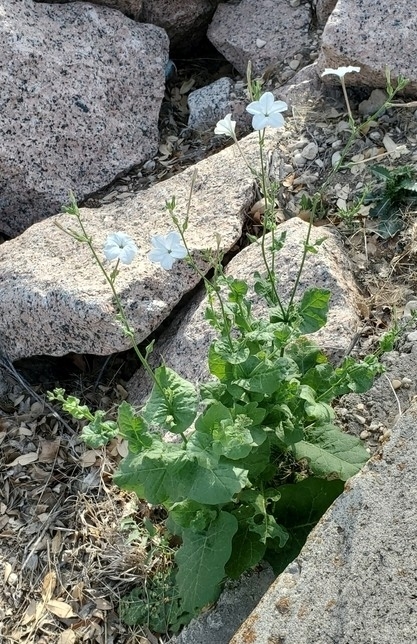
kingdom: Plantae
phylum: Tracheophyta
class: Magnoliopsida
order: Solanales
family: Solanaceae
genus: Nicotiana
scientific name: Nicotiana repanda
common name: Fiddle-leaf tobacco
